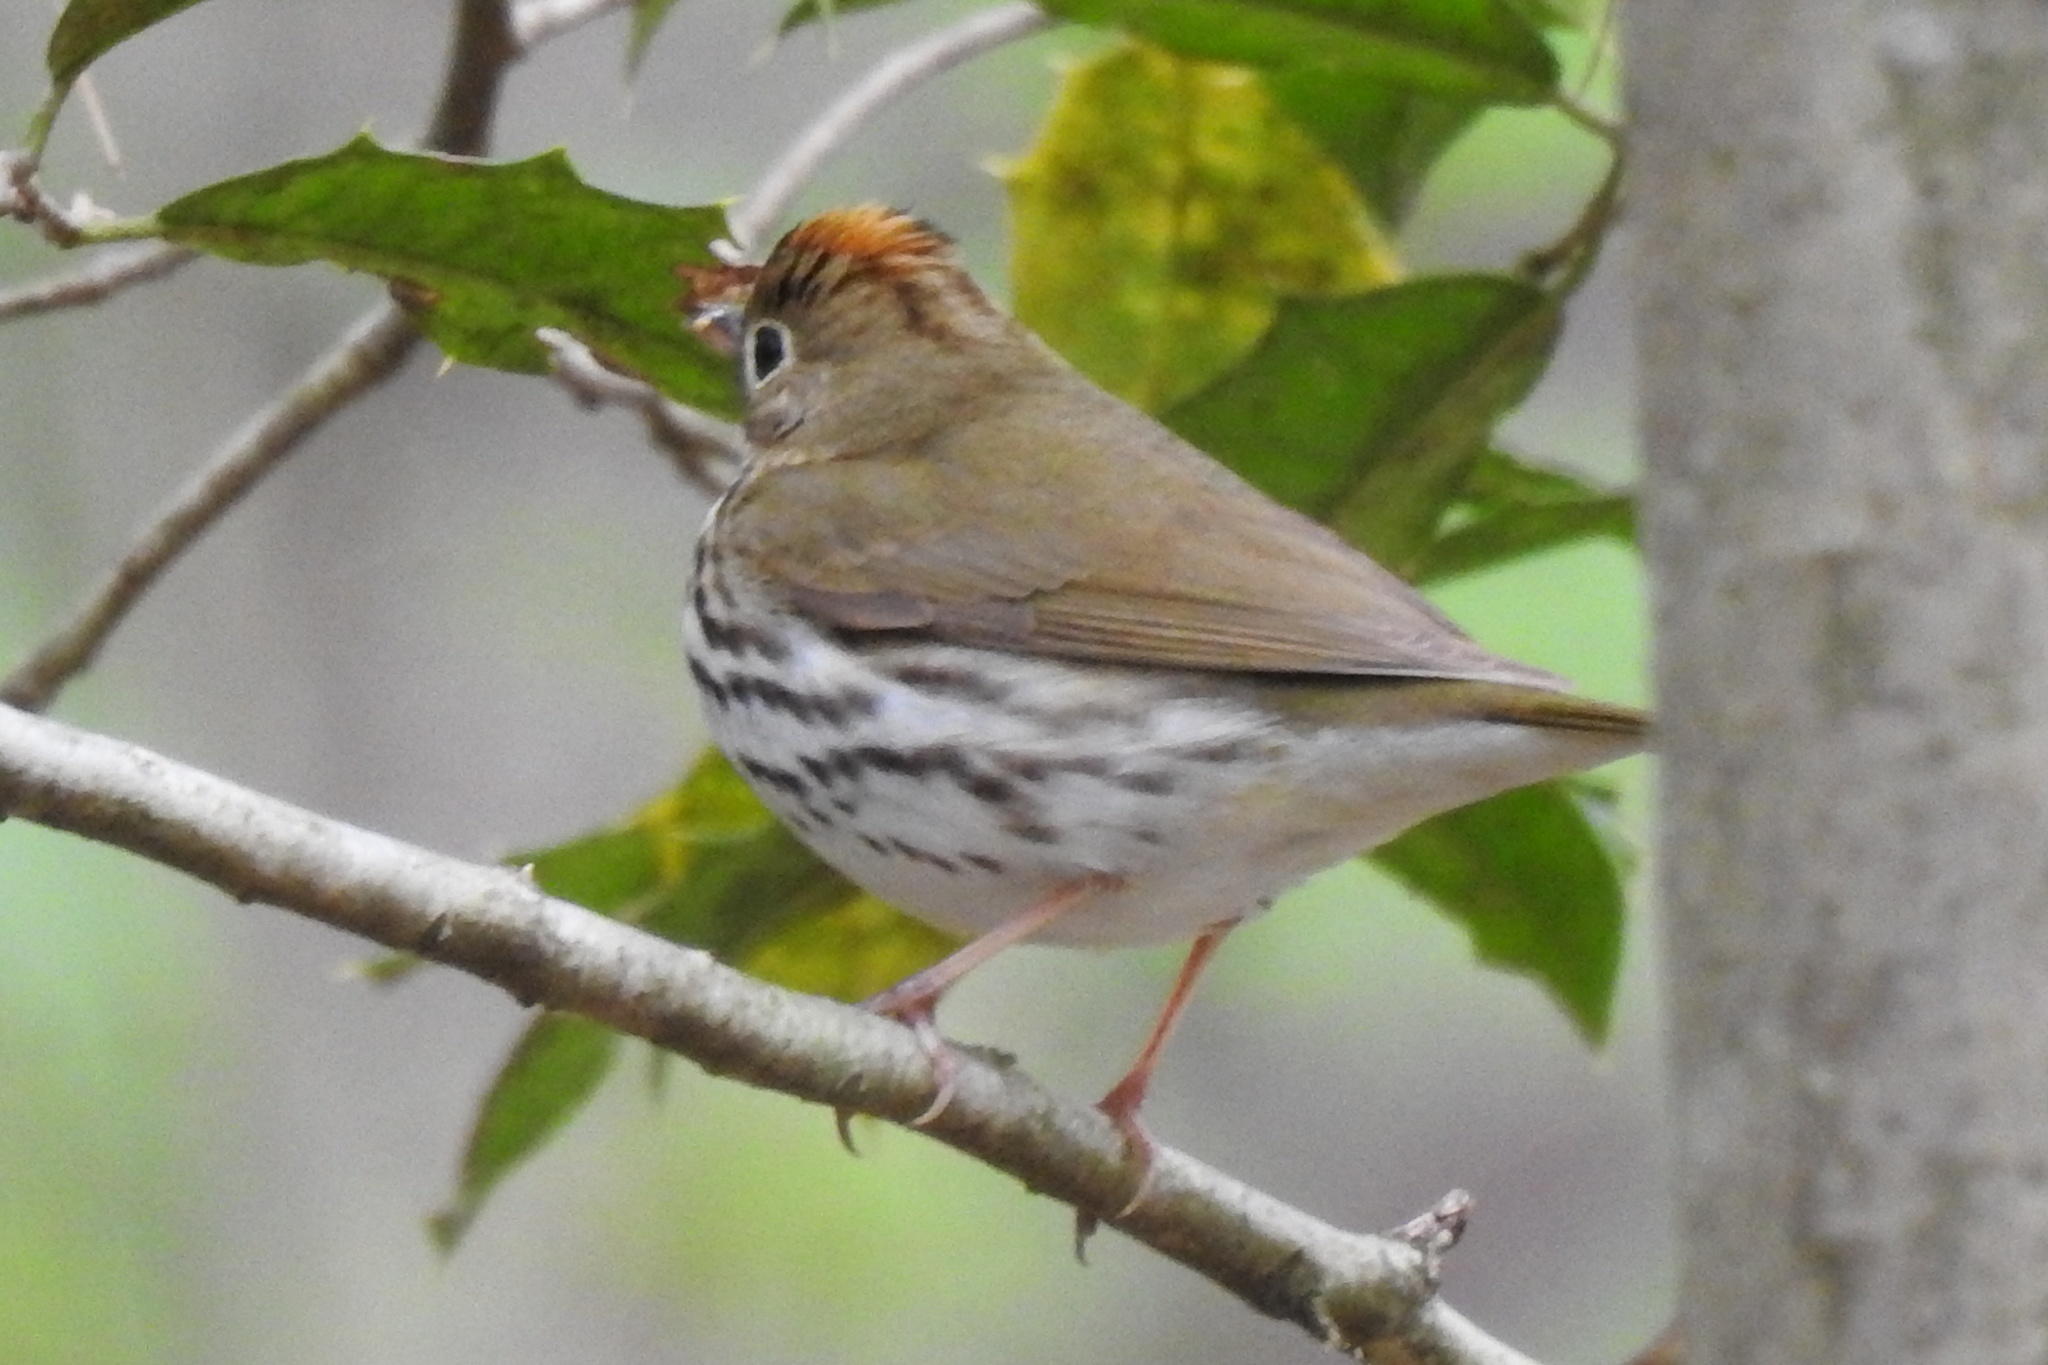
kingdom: Animalia
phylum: Chordata
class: Aves
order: Passeriformes
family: Parulidae
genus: Seiurus
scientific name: Seiurus aurocapilla
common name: Ovenbird
